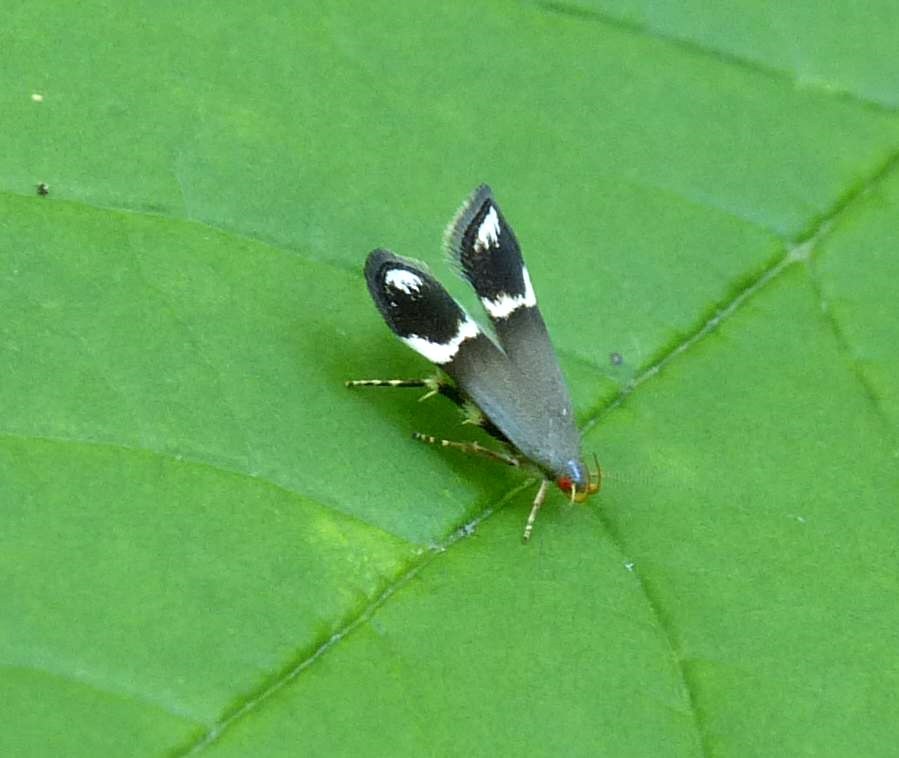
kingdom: Animalia
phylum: Arthropoda
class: Insecta
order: Lepidoptera
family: Gelechiidae
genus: Anacampsis
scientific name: Anacampsis tristrigella
